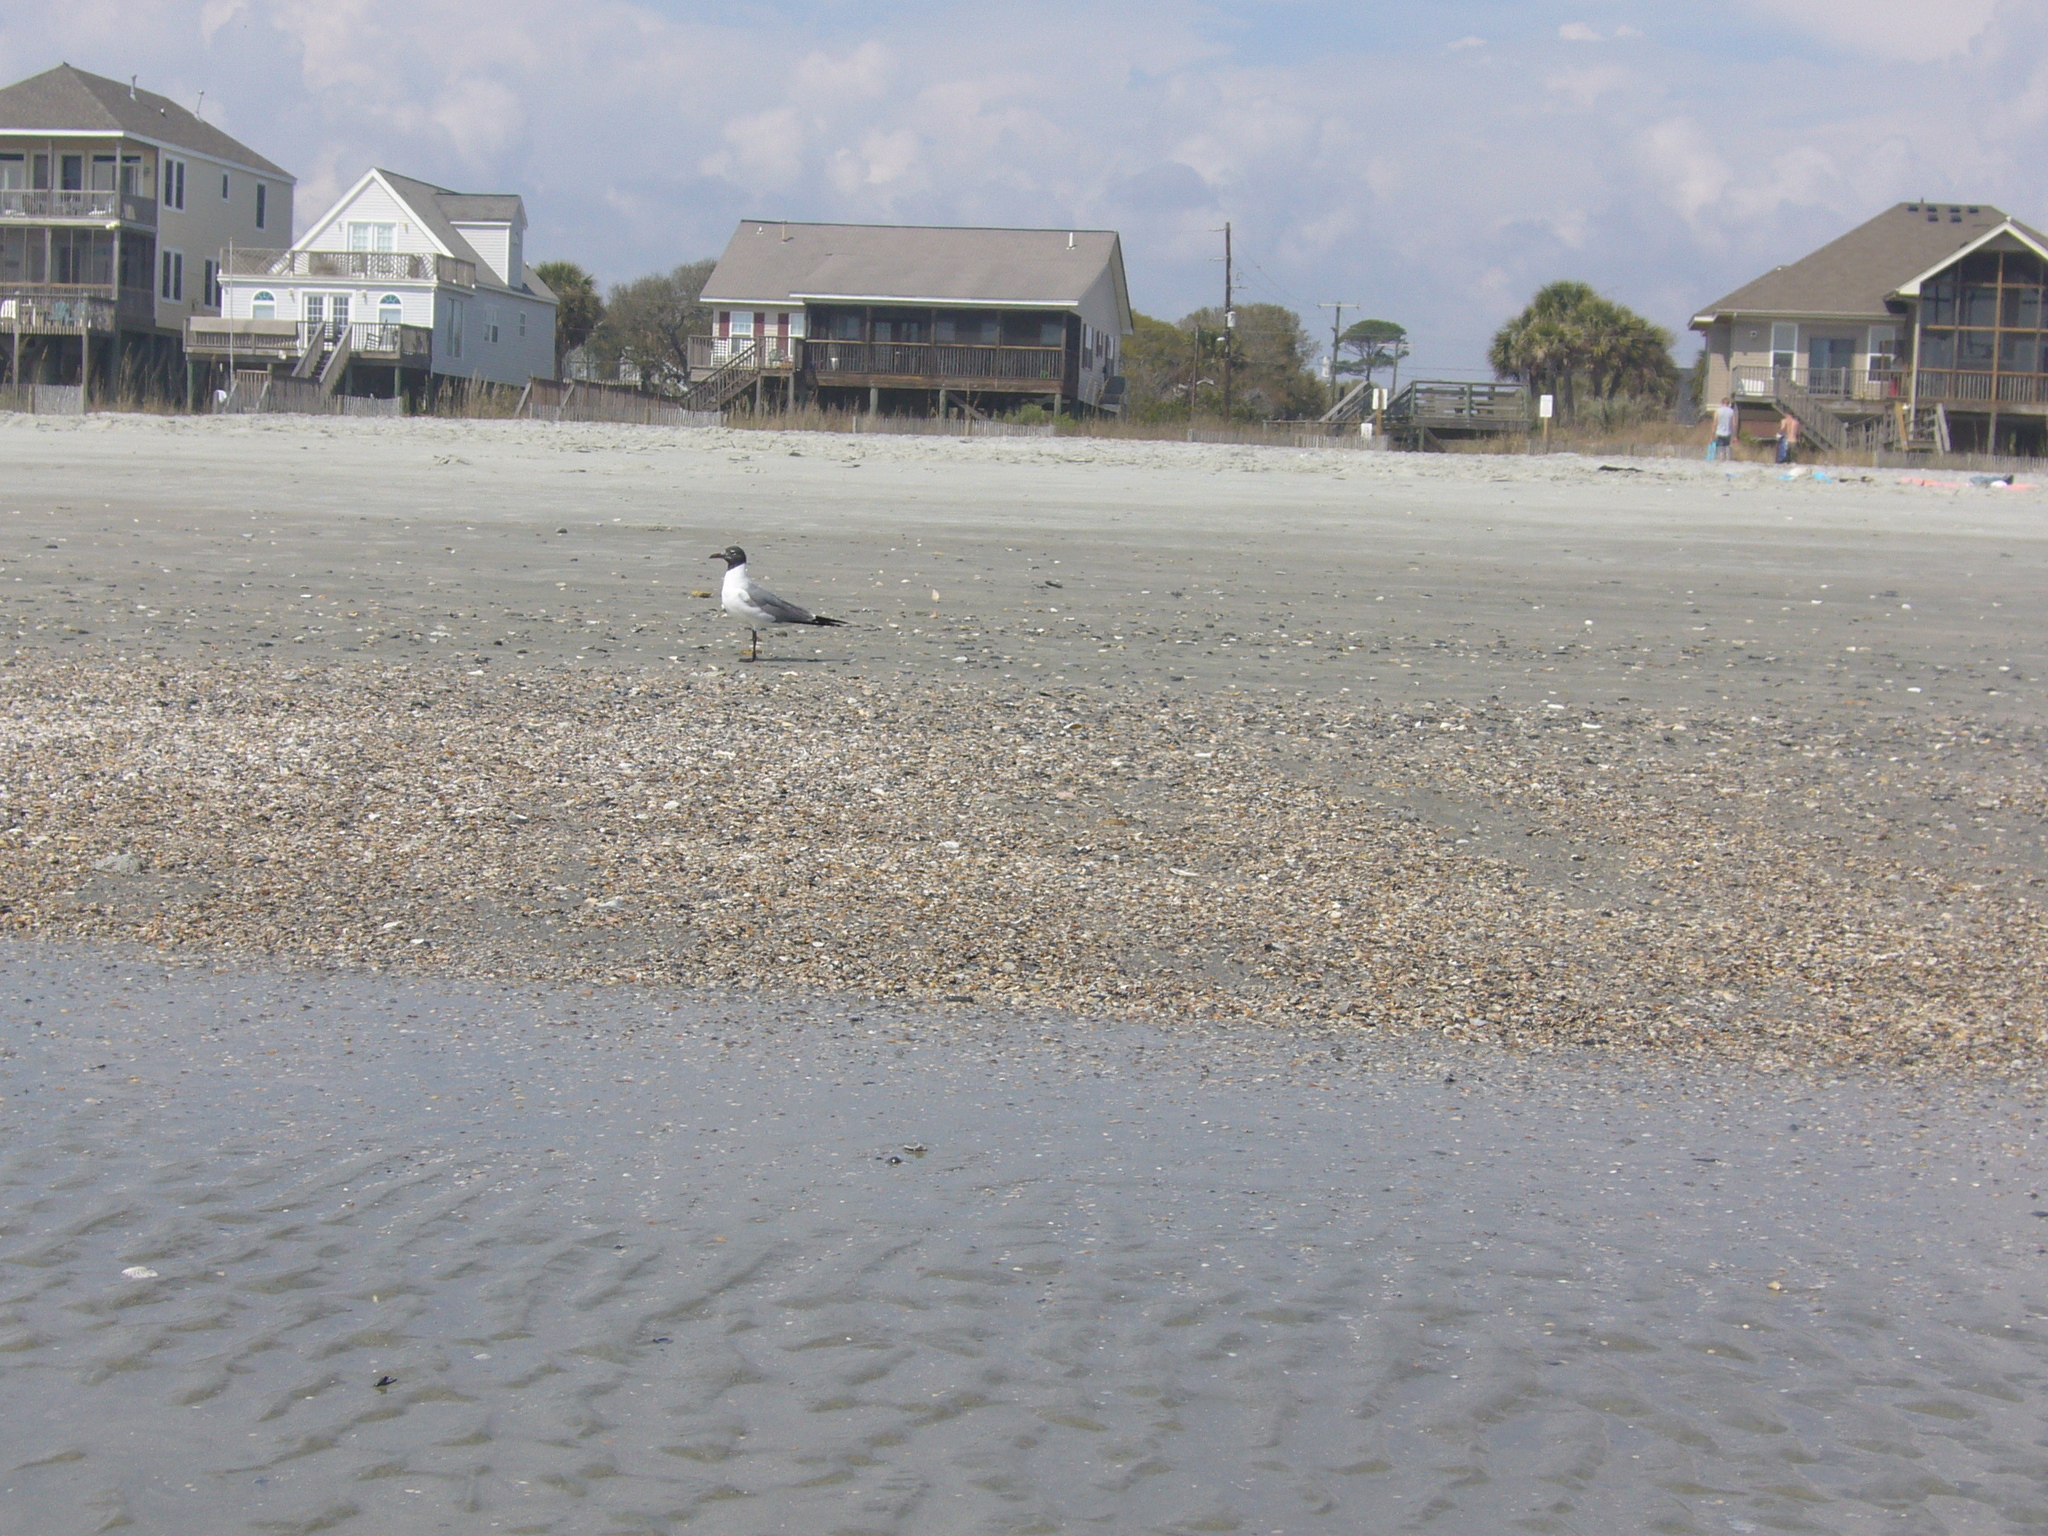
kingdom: Animalia
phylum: Chordata
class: Aves
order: Charadriiformes
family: Laridae
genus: Leucophaeus
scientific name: Leucophaeus atricilla
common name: Laughing gull
